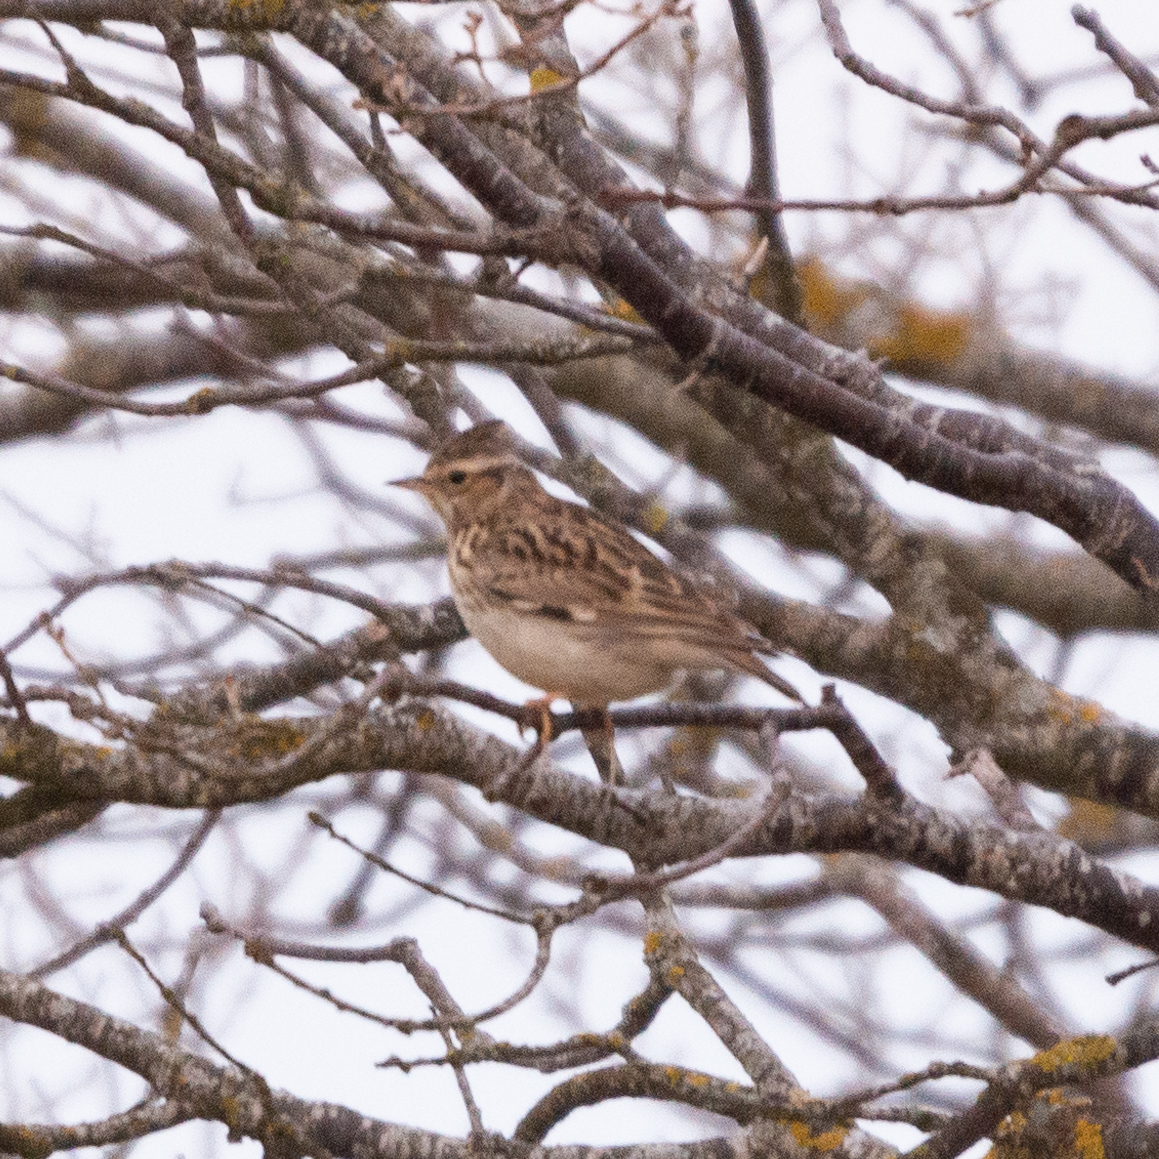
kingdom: Animalia
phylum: Chordata
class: Aves
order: Passeriformes
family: Alaudidae
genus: Lullula
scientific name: Lullula arborea
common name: Woodlark
